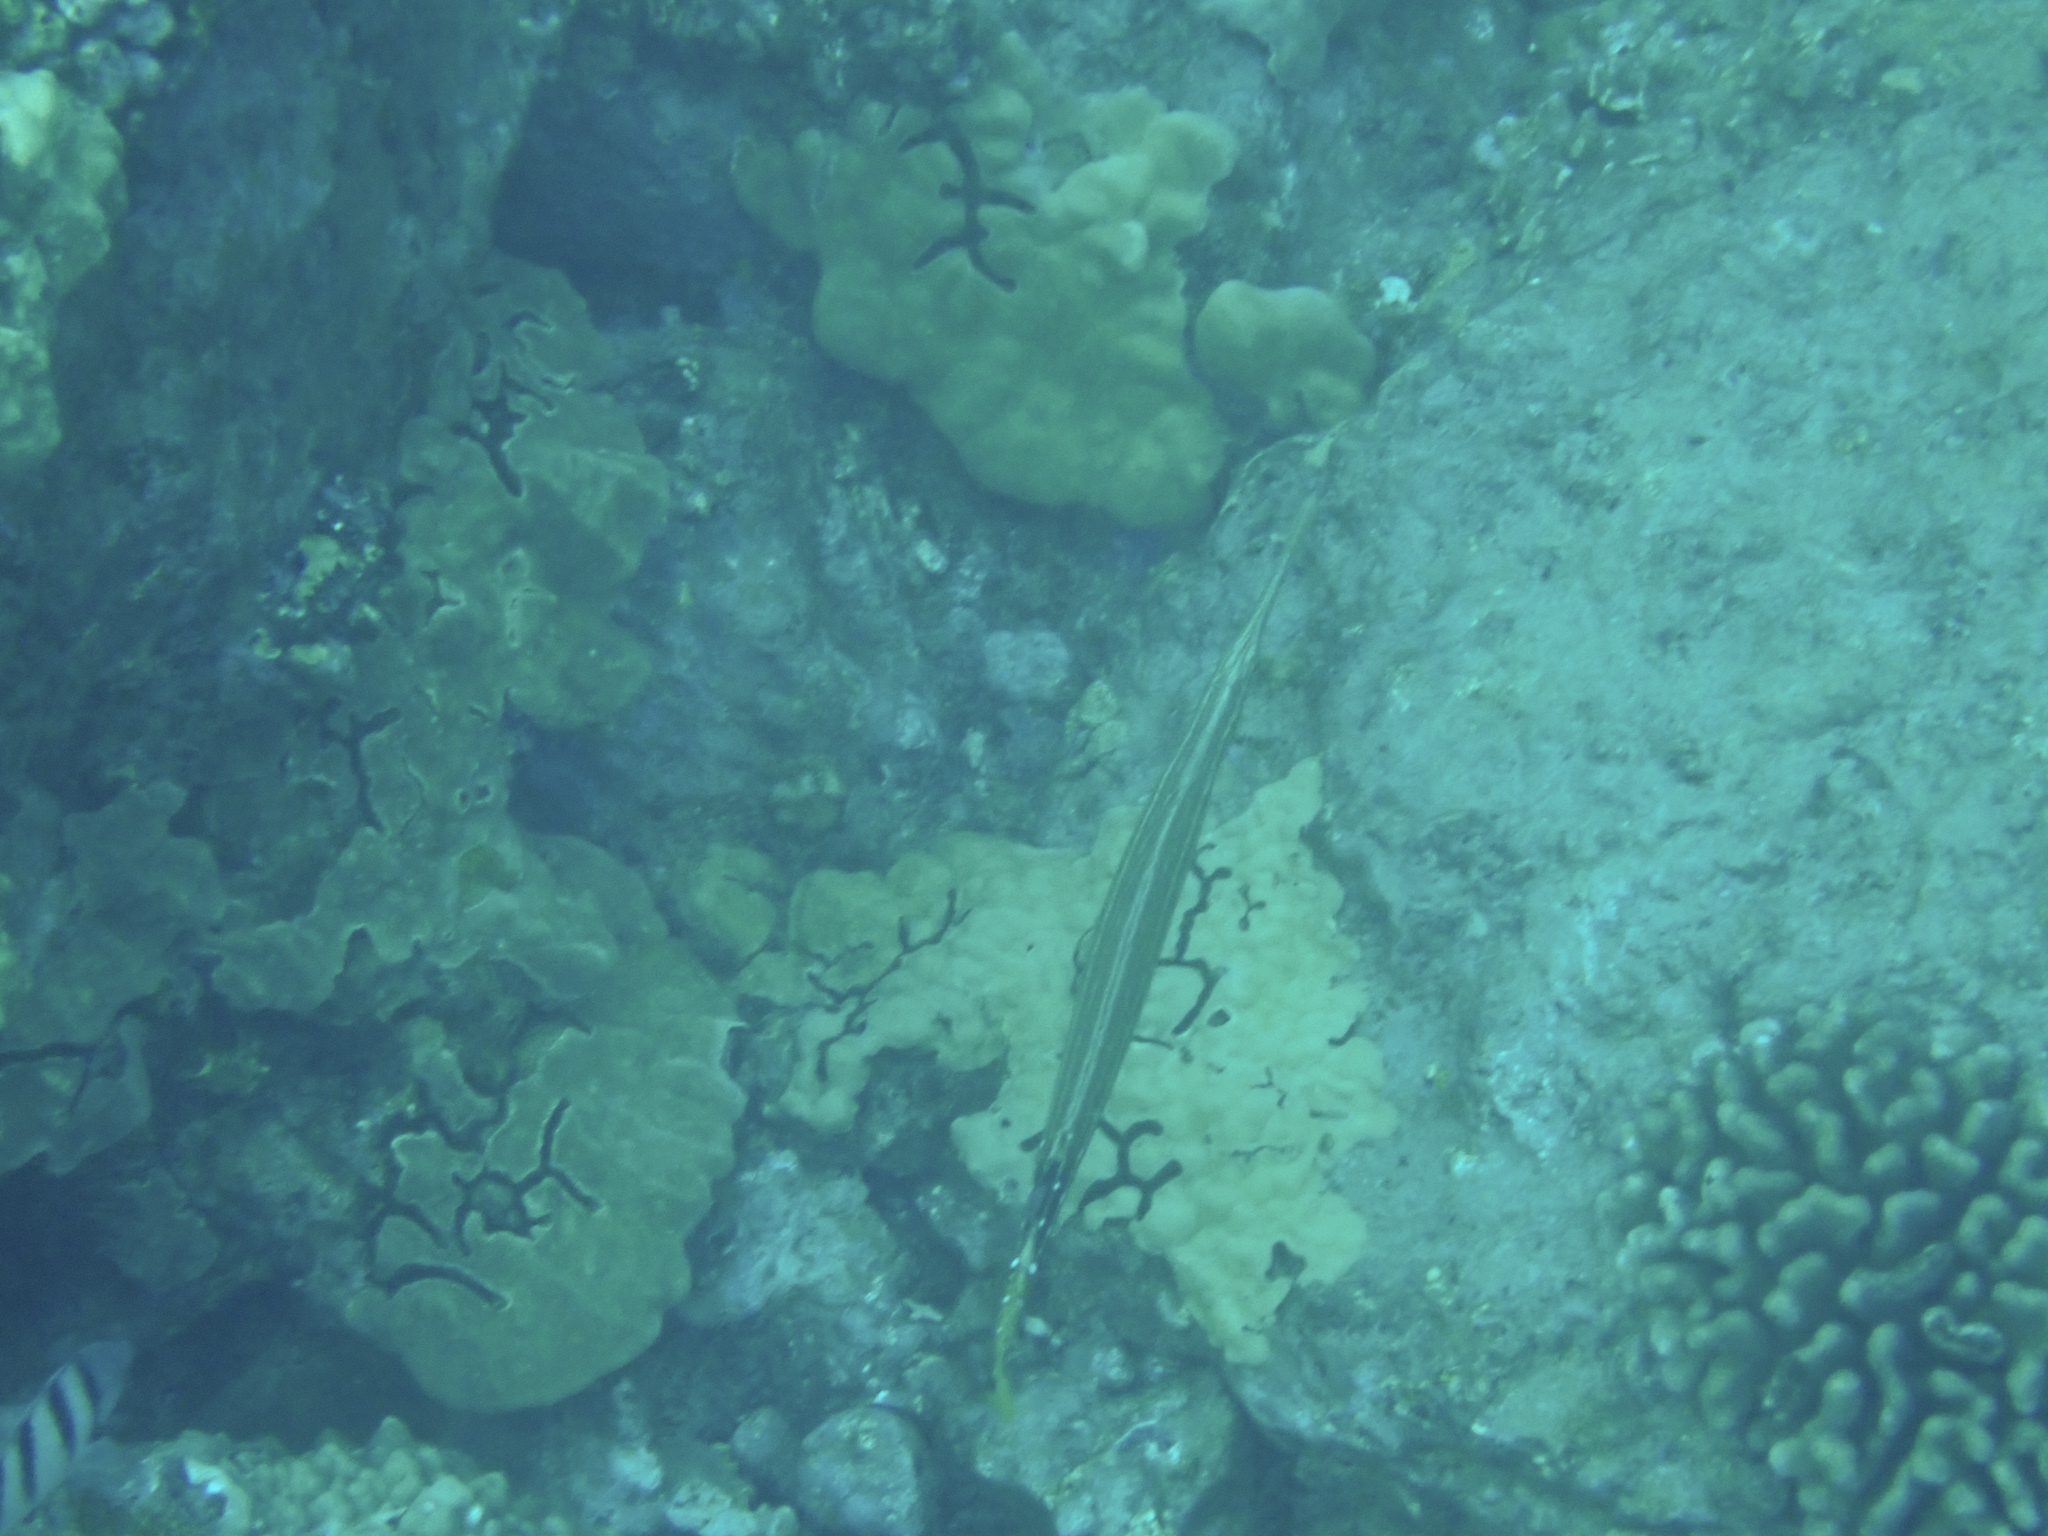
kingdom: Animalia
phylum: Chordata
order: Syngnathiformes
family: Aulostomidae
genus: Aulostomus
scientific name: Aulostomus chinensis
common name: Chinese trumpetfish
